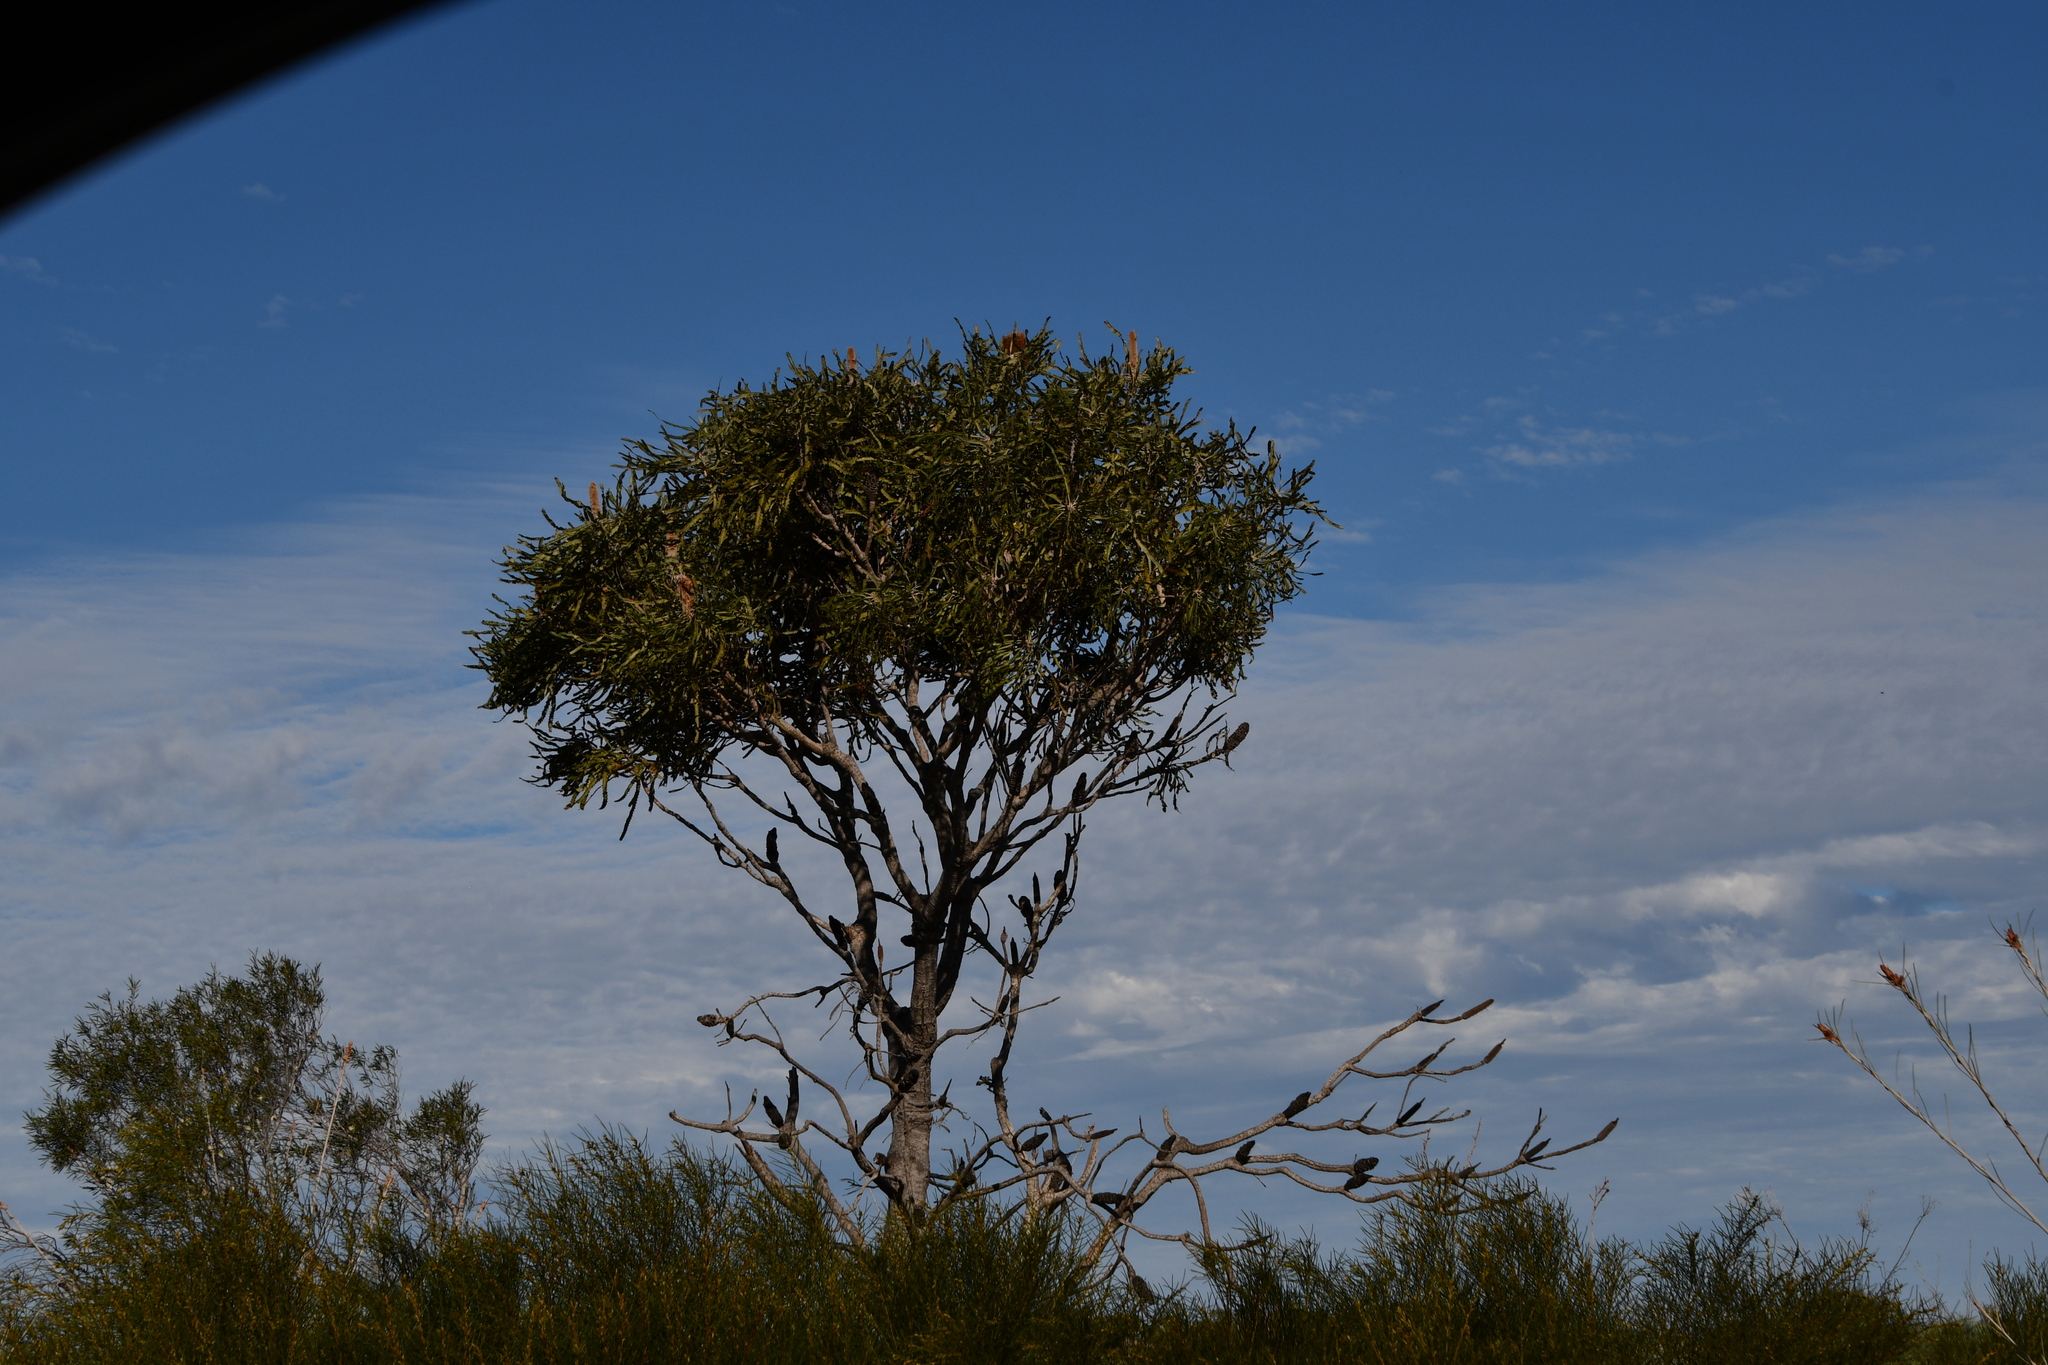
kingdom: Plantae
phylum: Tracheophyta
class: Magnoliopsida
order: Proteales
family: Proteaceae
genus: Banksia
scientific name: Banksia prionotes
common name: Acorn banksia
